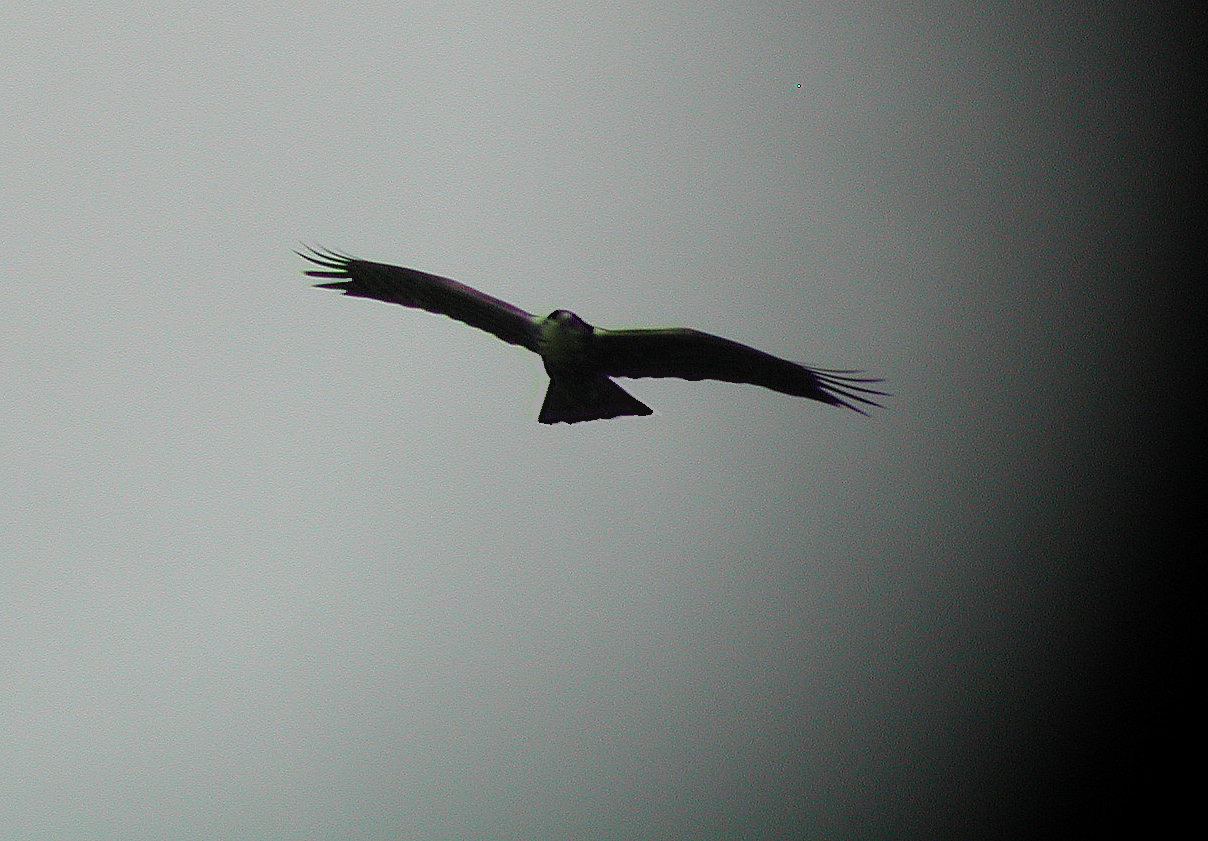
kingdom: Animalia
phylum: Chordata
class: Aves
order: Accipitriformes
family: Accipitridae
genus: Hieraaetus
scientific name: Hieraaetus ayresii
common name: Ayres's hawk-eagle
